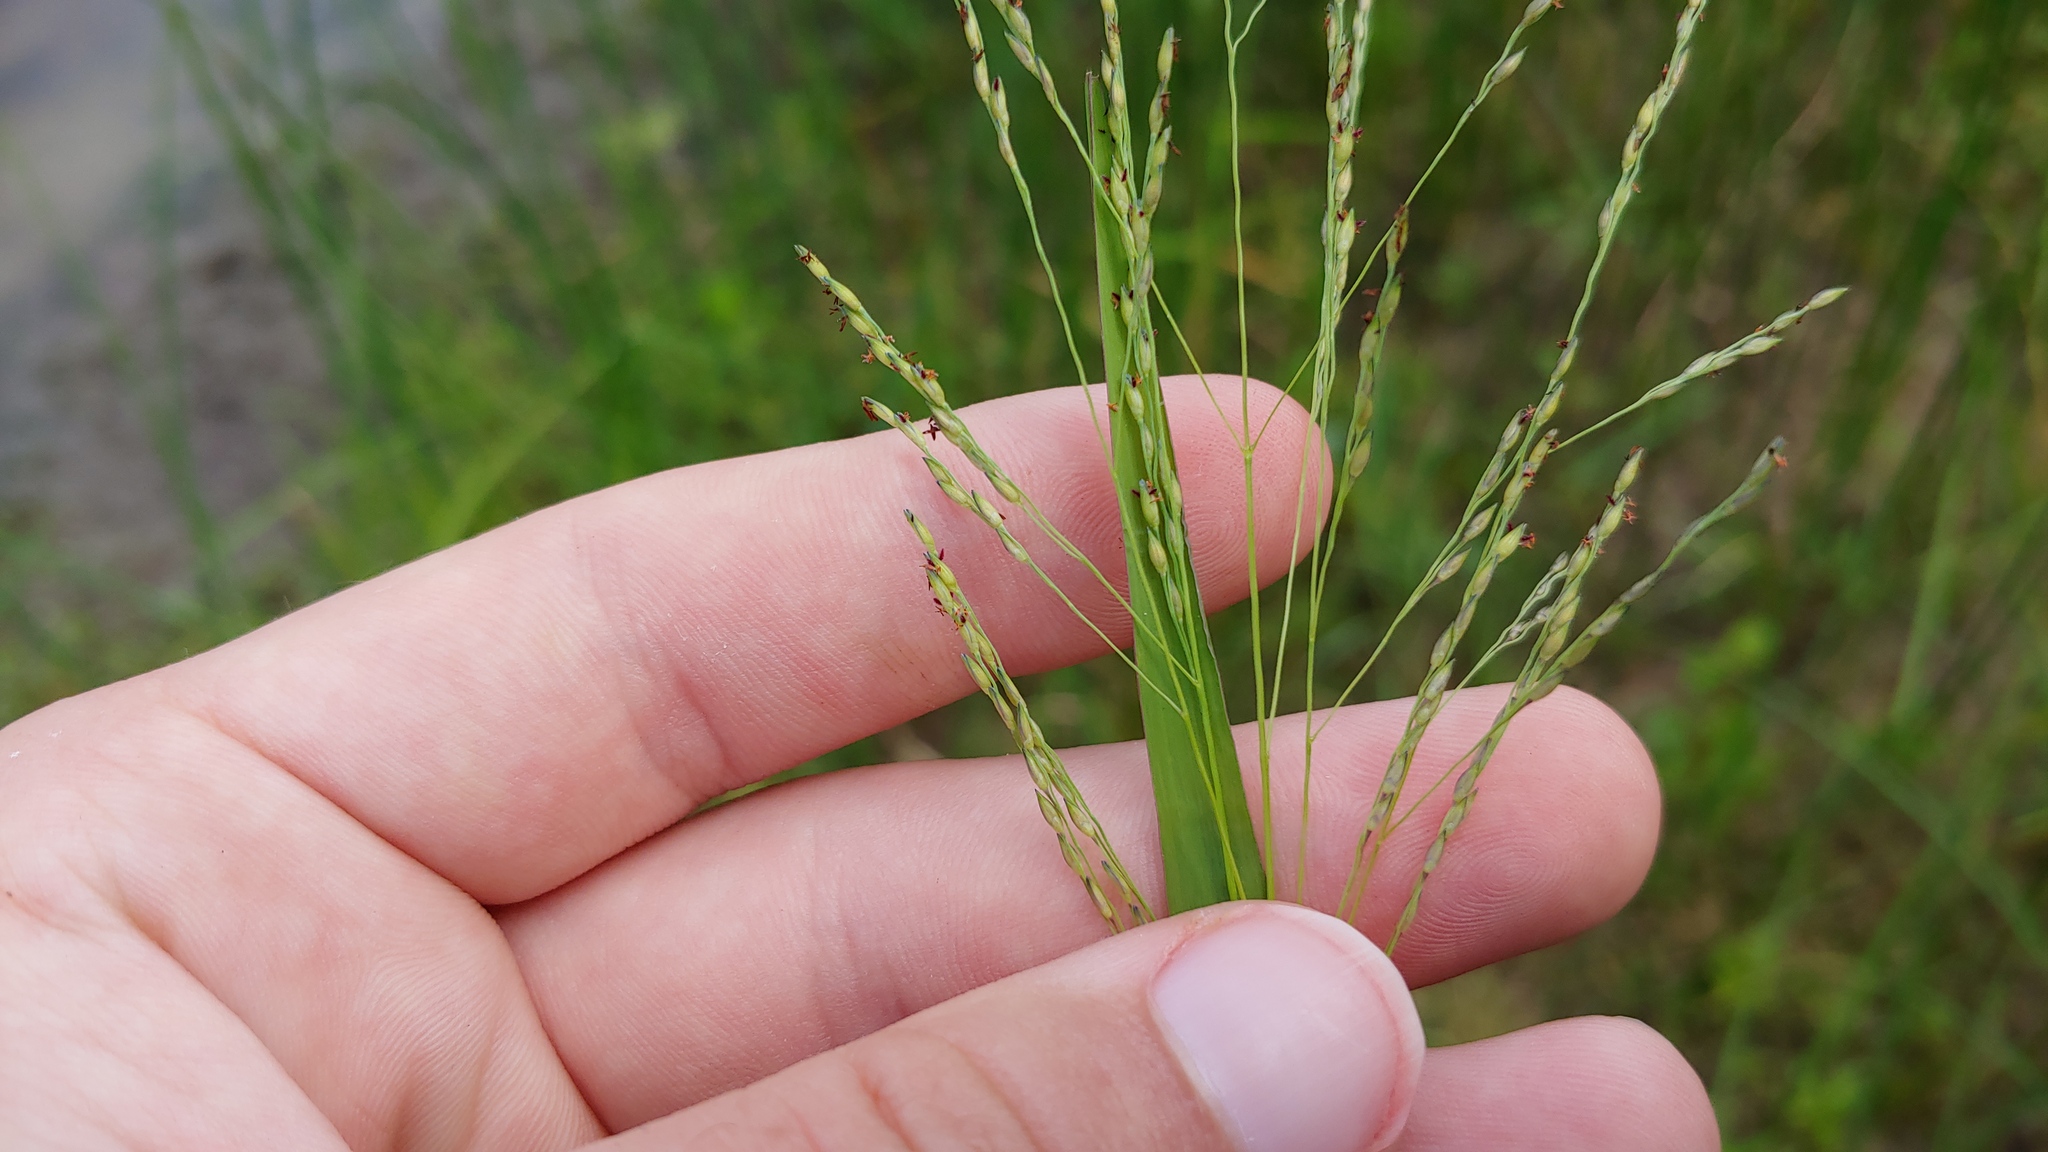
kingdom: Plantae
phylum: Tracheophyta
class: Liliopsida
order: Poales
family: Poaceae
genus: Panicum
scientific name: Panicum dichotomiflorum
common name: Autumn millet
